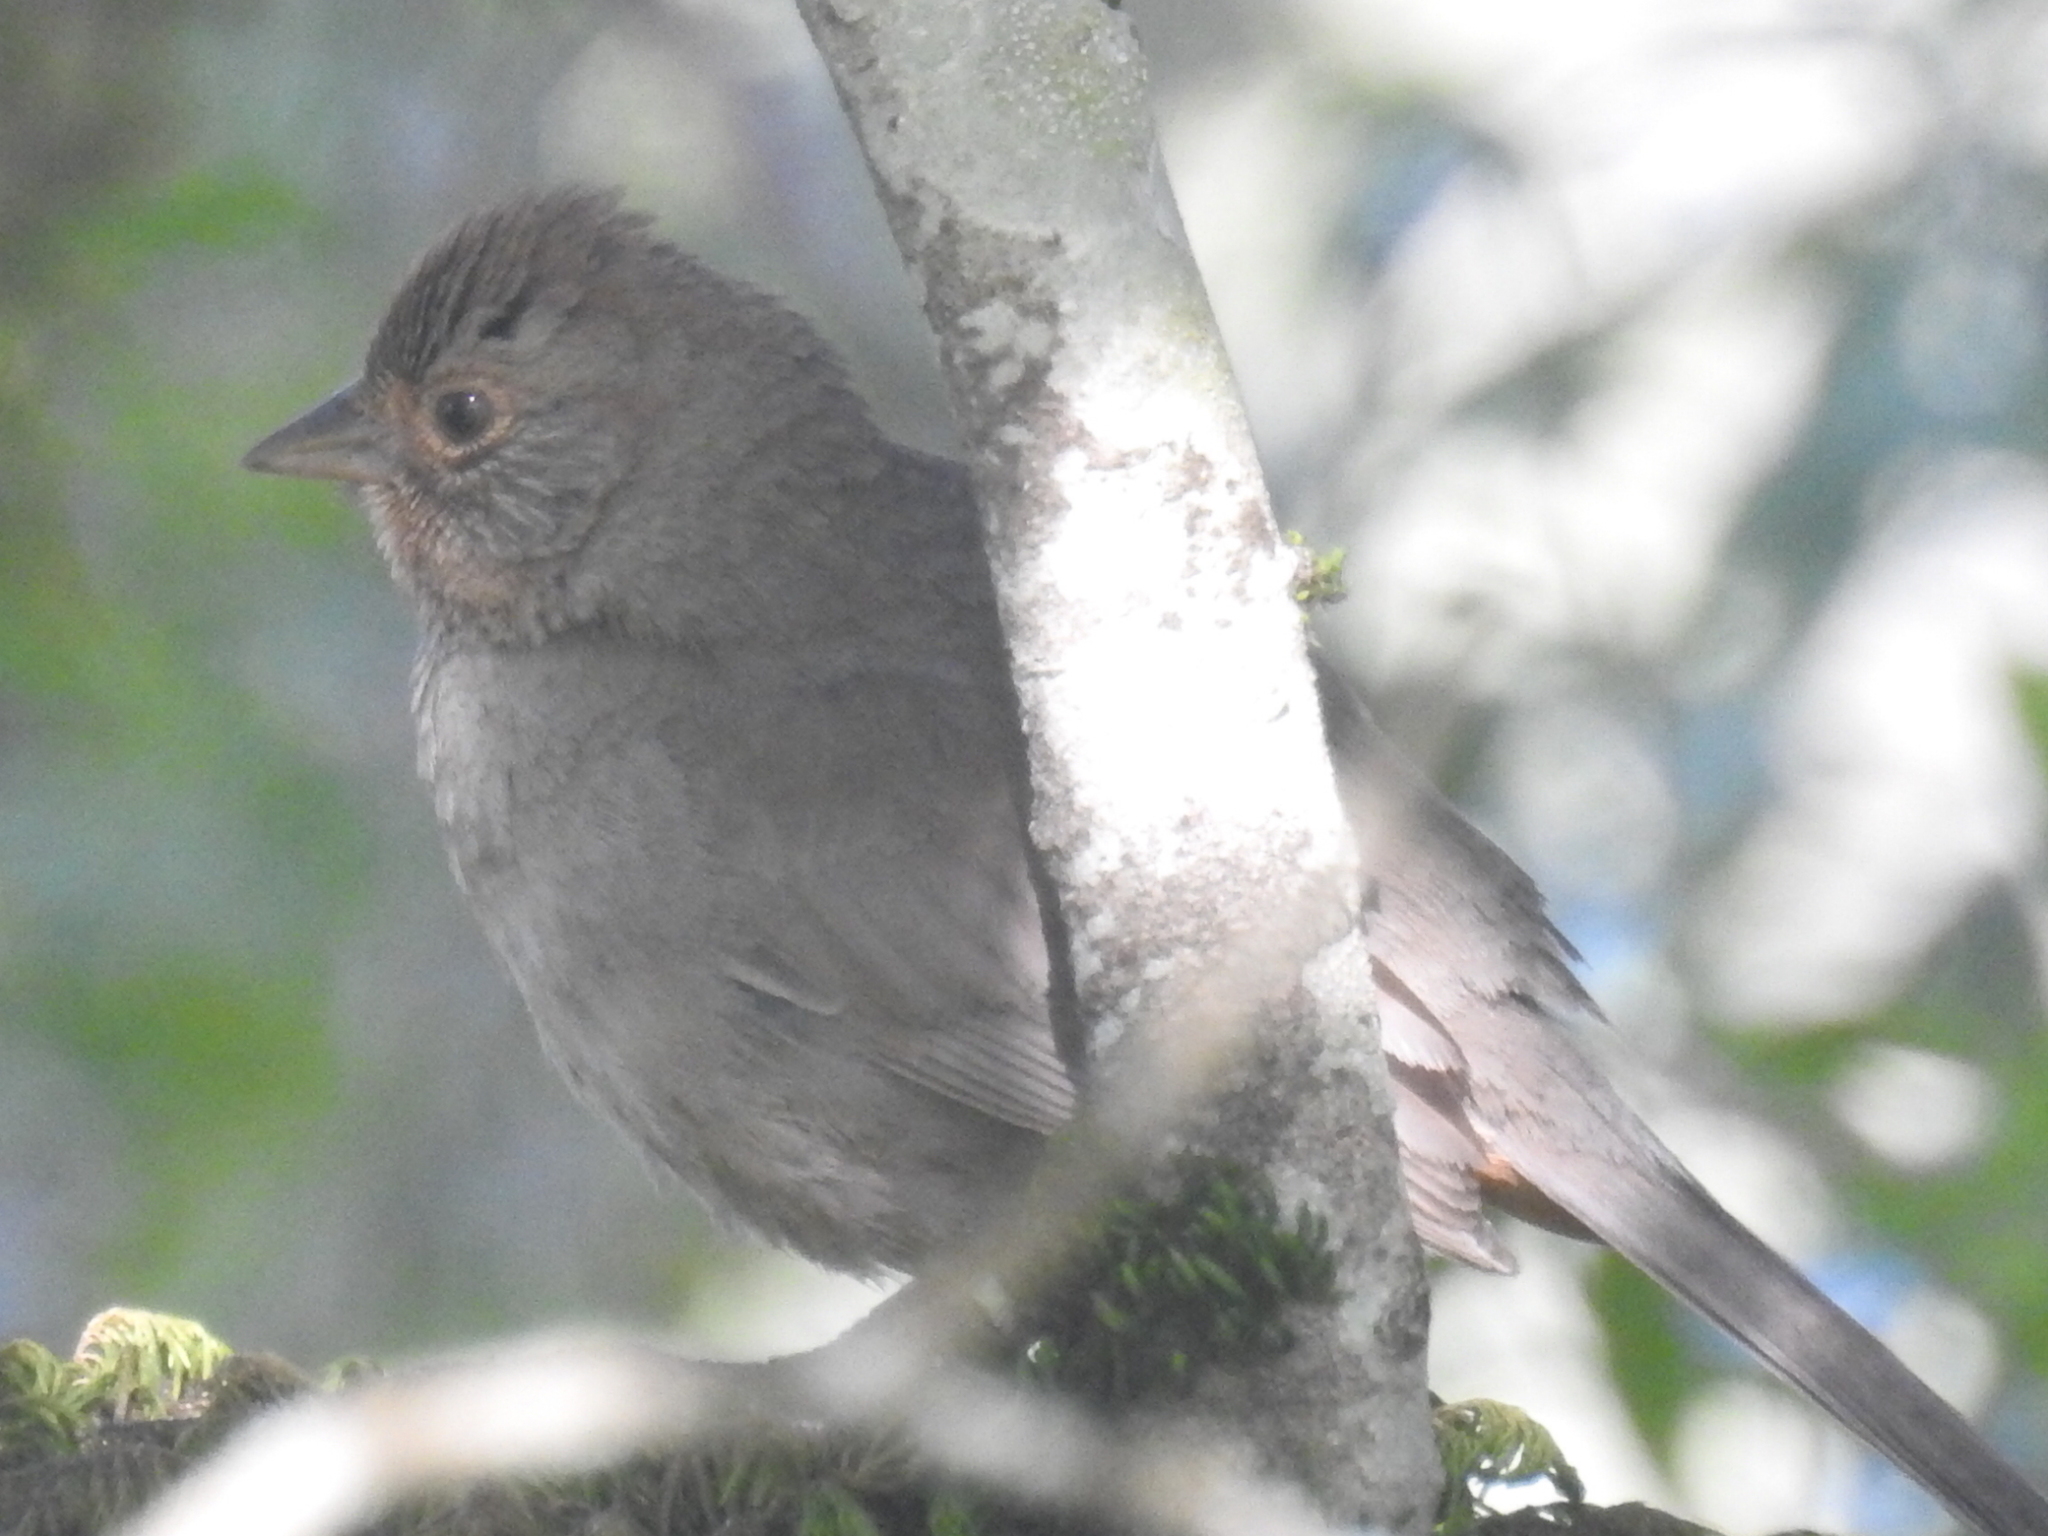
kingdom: Animalia
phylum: Chordata
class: Aves
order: Passeriformes
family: Passerellidae
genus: Melozone
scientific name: Melozone crissalis
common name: California towhee
